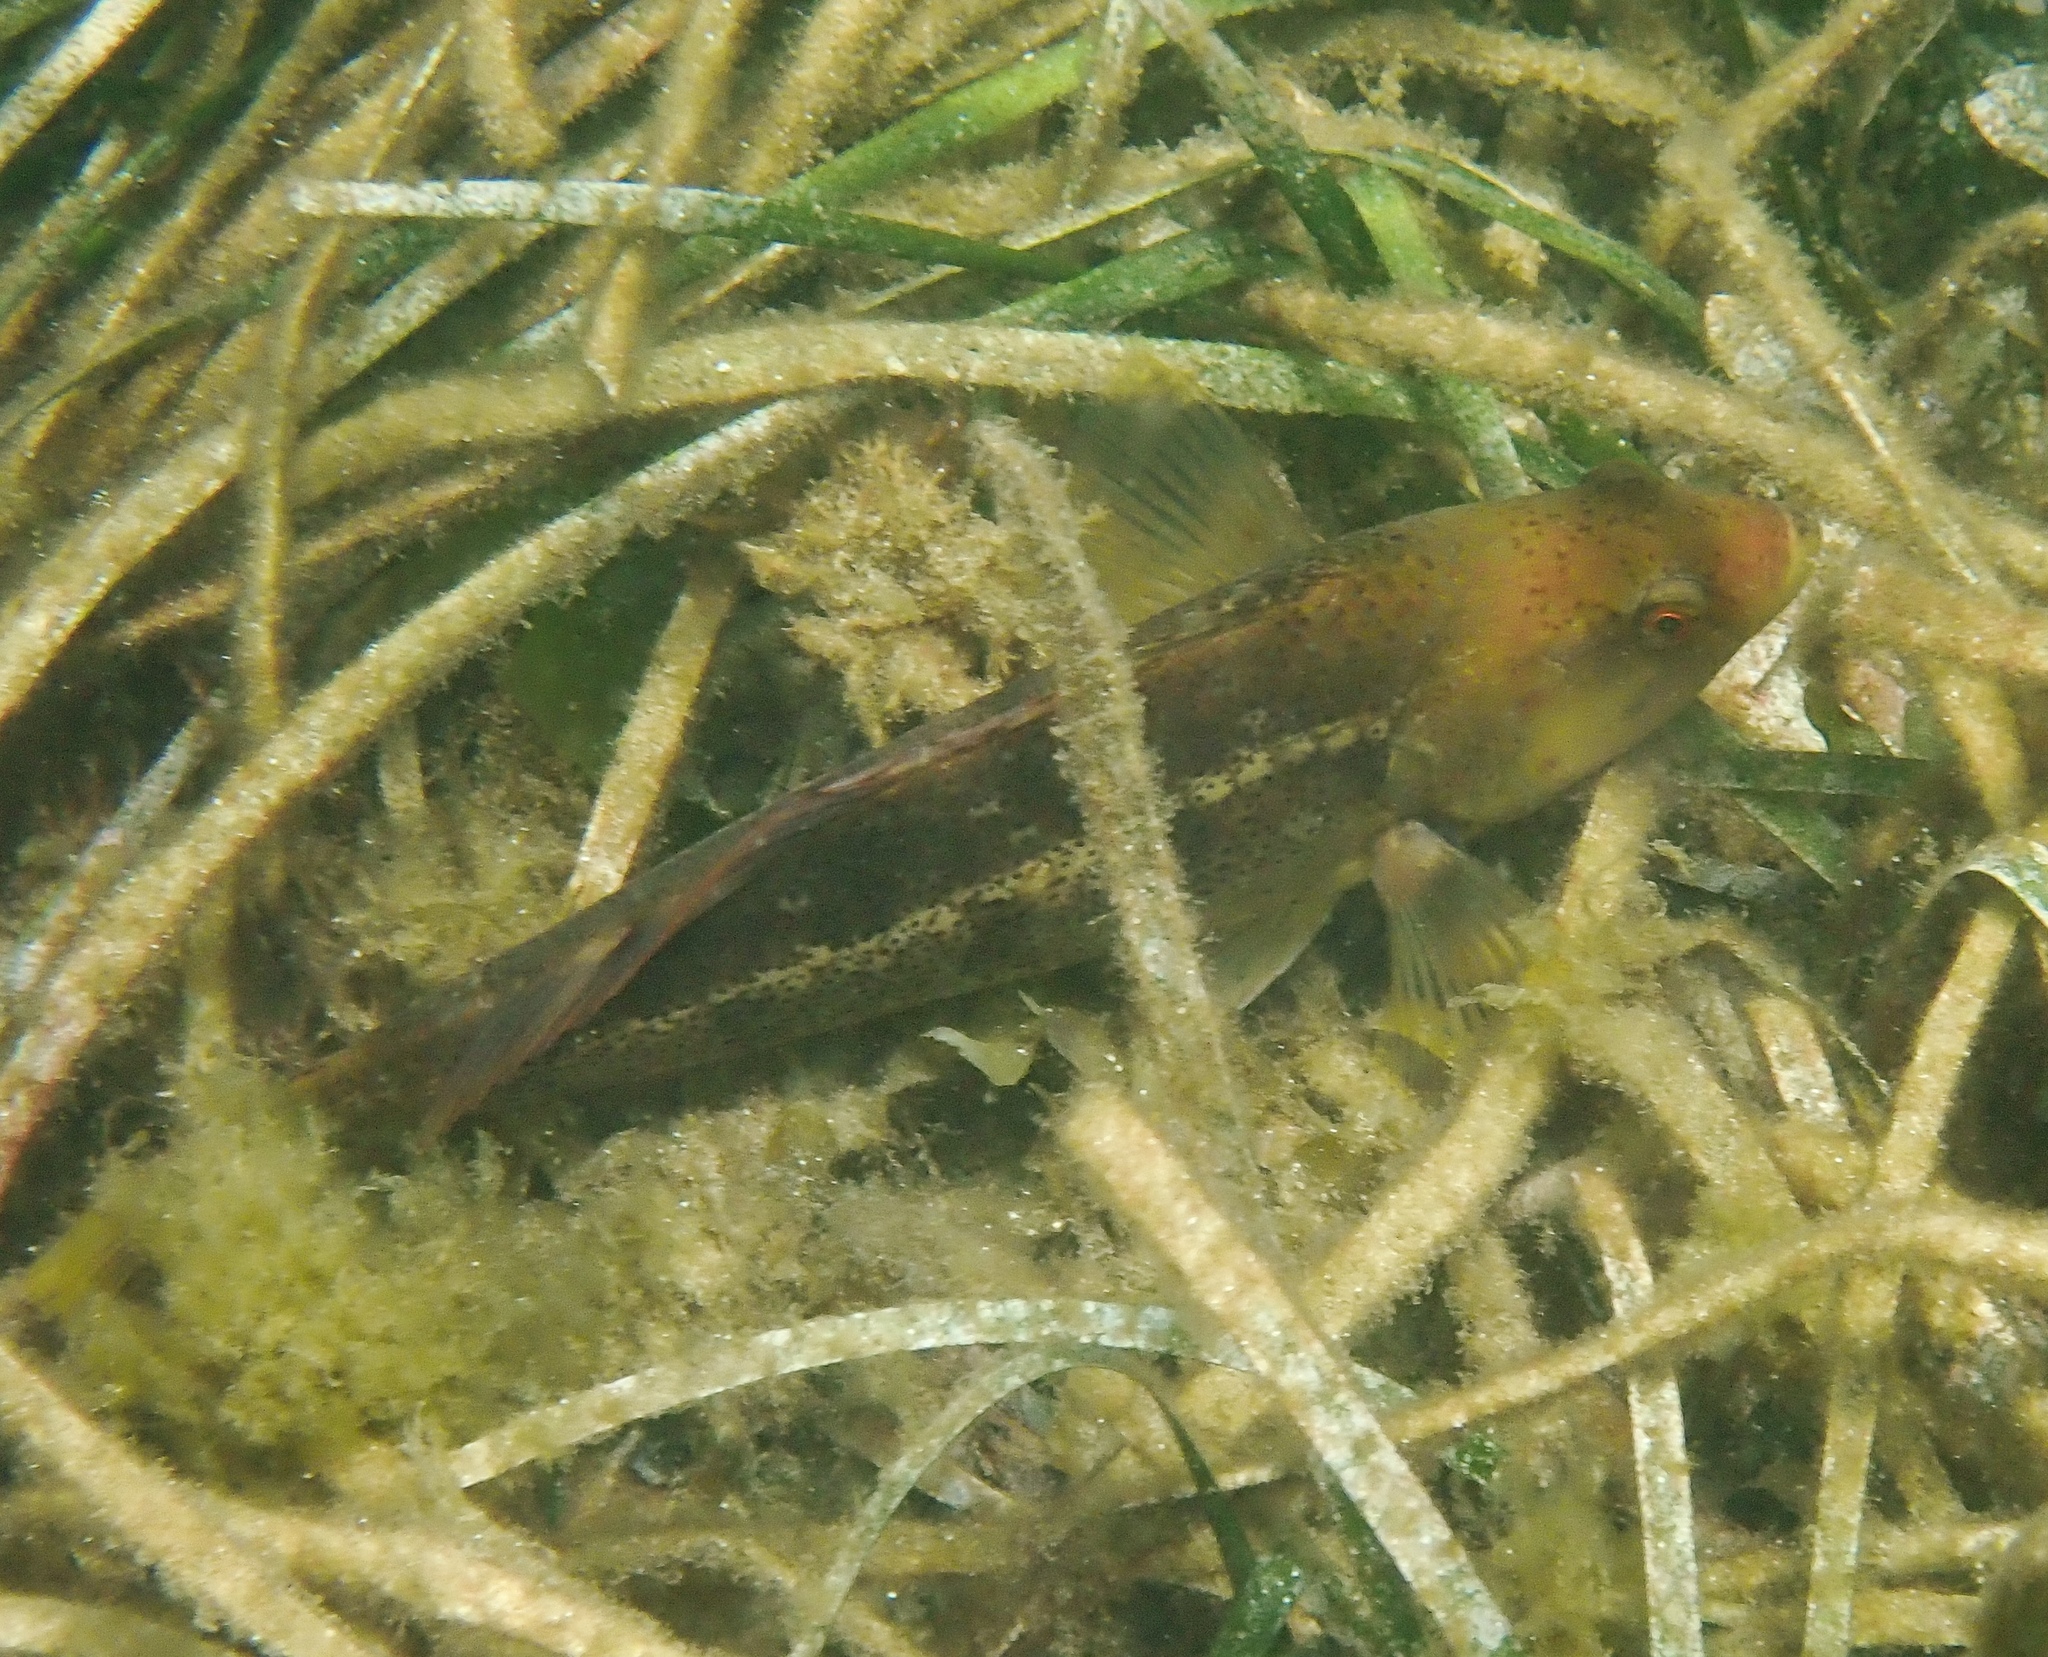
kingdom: Animalia
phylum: Chordata
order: Perciformes
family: Labridae
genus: Notolabrus
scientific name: Notolabrus parilus
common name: Brown spotted wrasse
